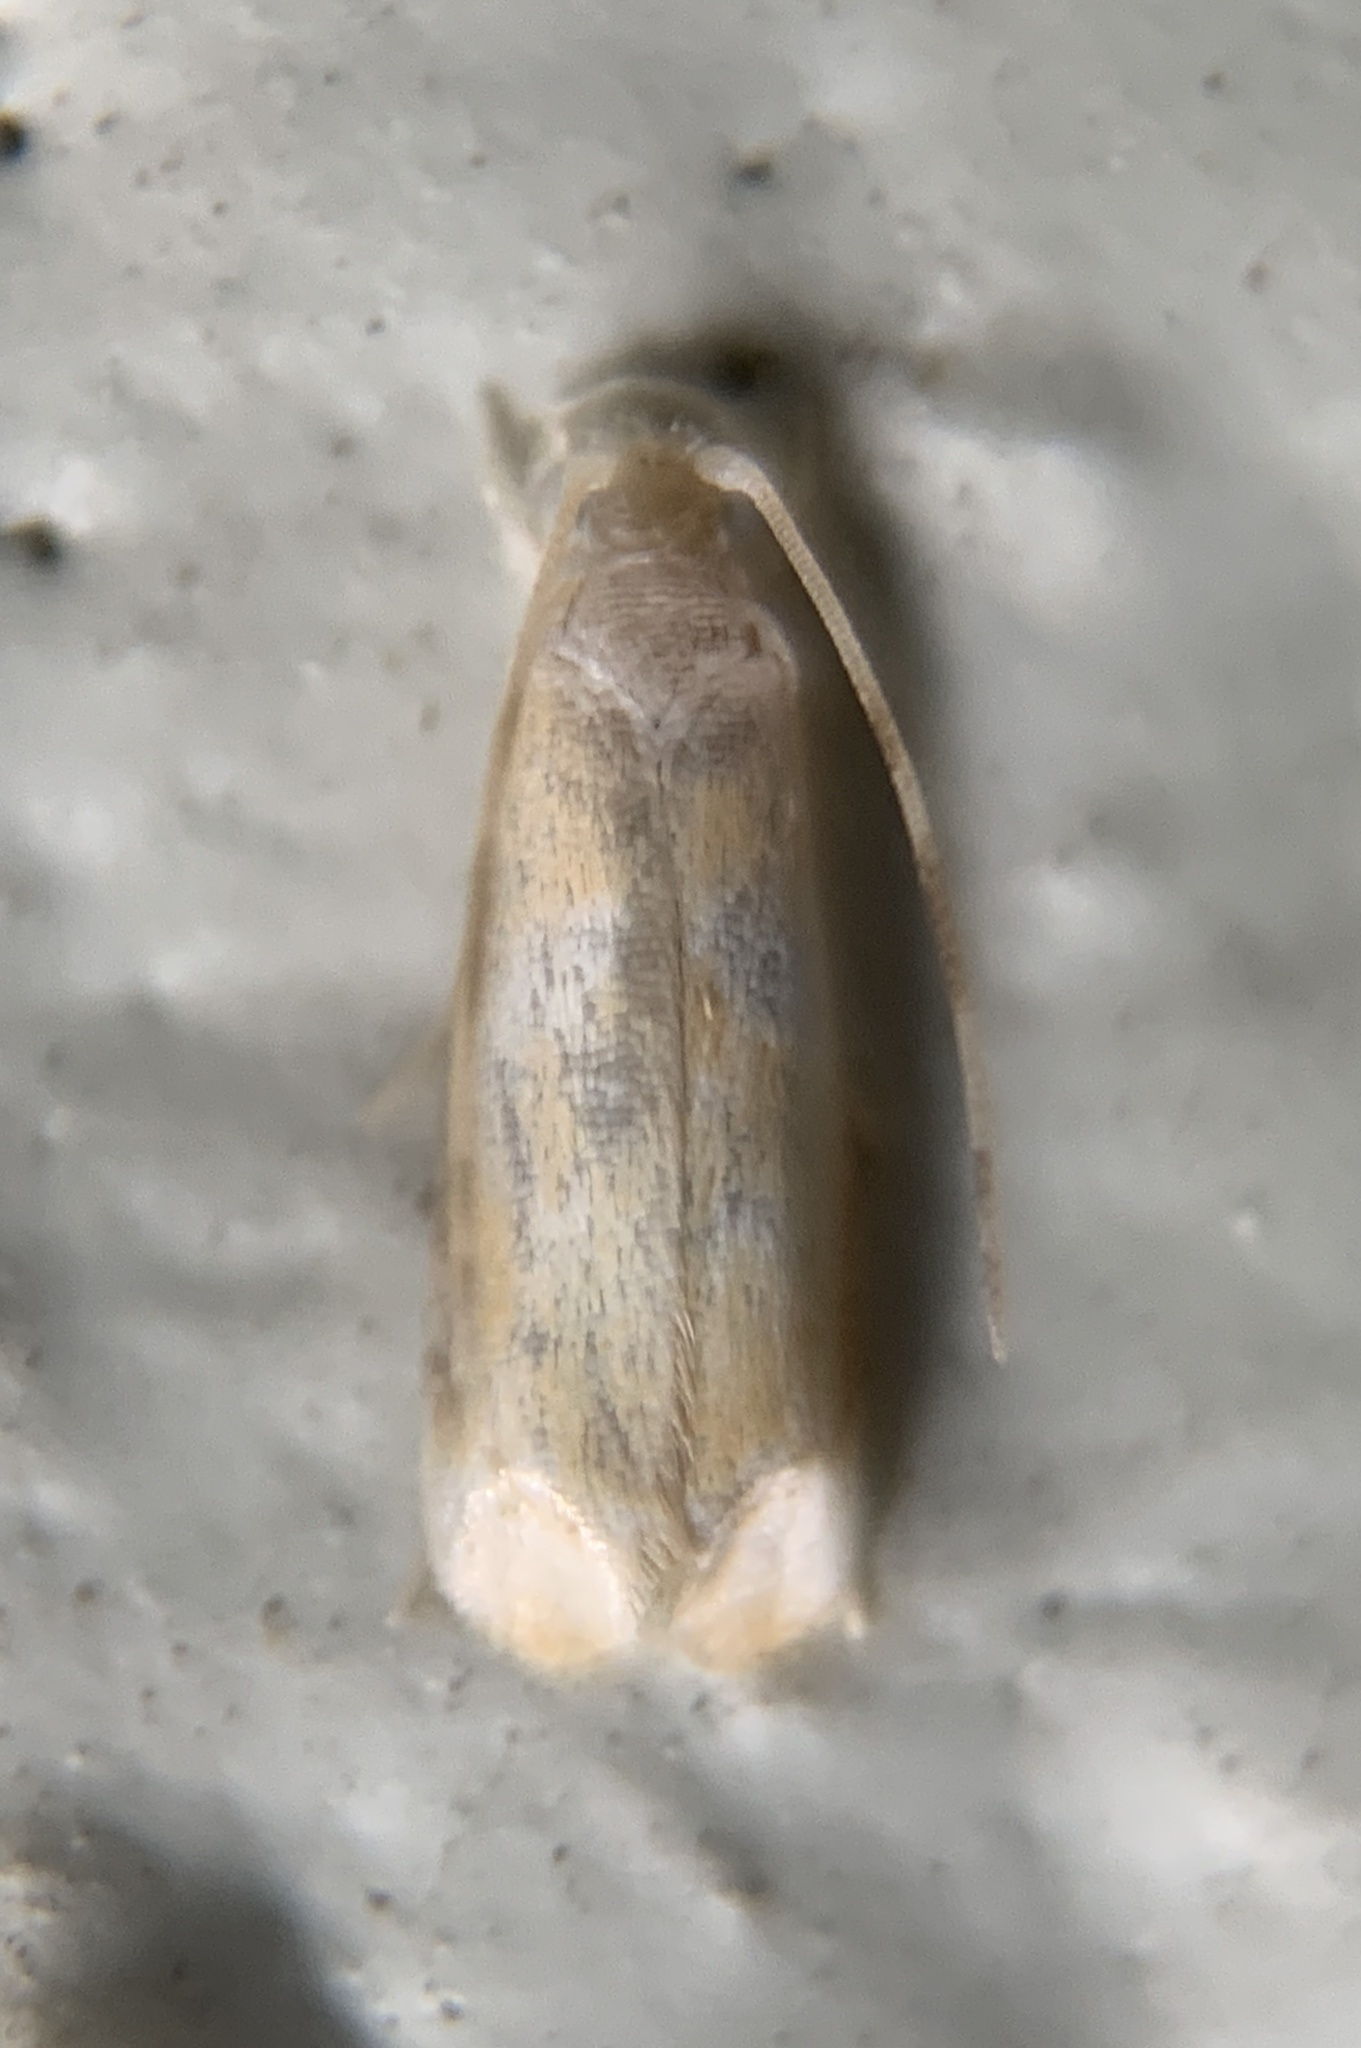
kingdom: Animalia
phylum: Arthropoda
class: Insecta
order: Lepidoptera
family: Dryadaulidae
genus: Dryadaula
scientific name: Dryadaula terpsichorella
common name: Dancing moth
